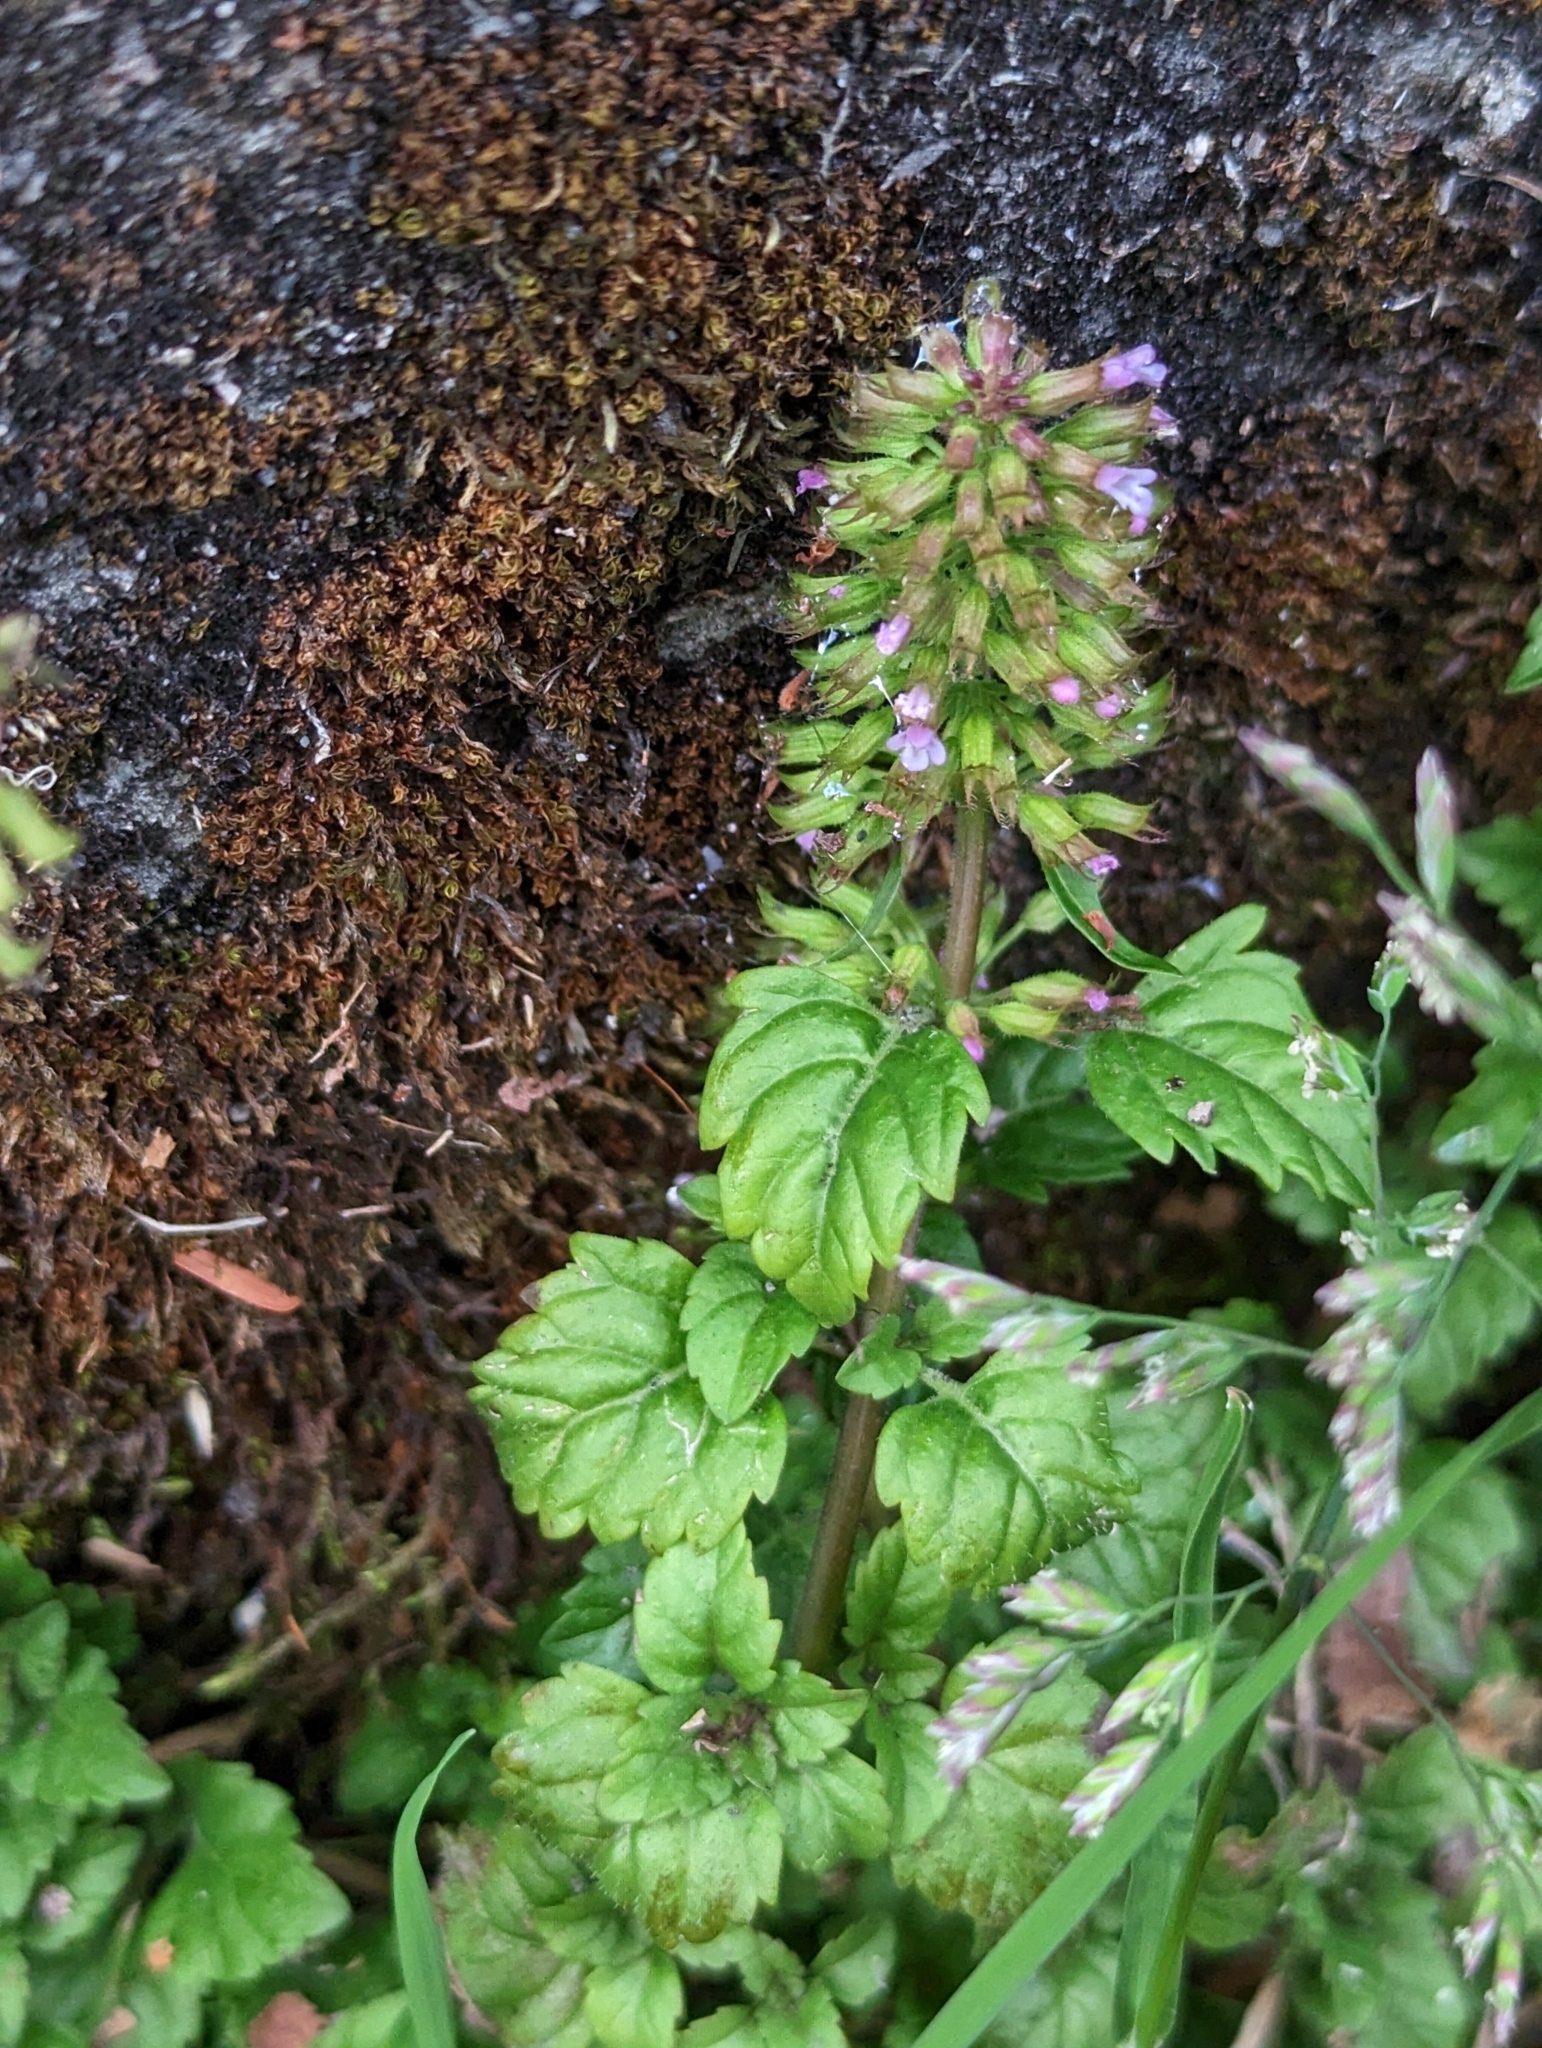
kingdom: Plantae
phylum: Tracheophyta
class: Magnoliopsida
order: Lamiales
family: Lamiaceae
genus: Clinopodium
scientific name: Clinopodium gracile
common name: Slender wild basil
